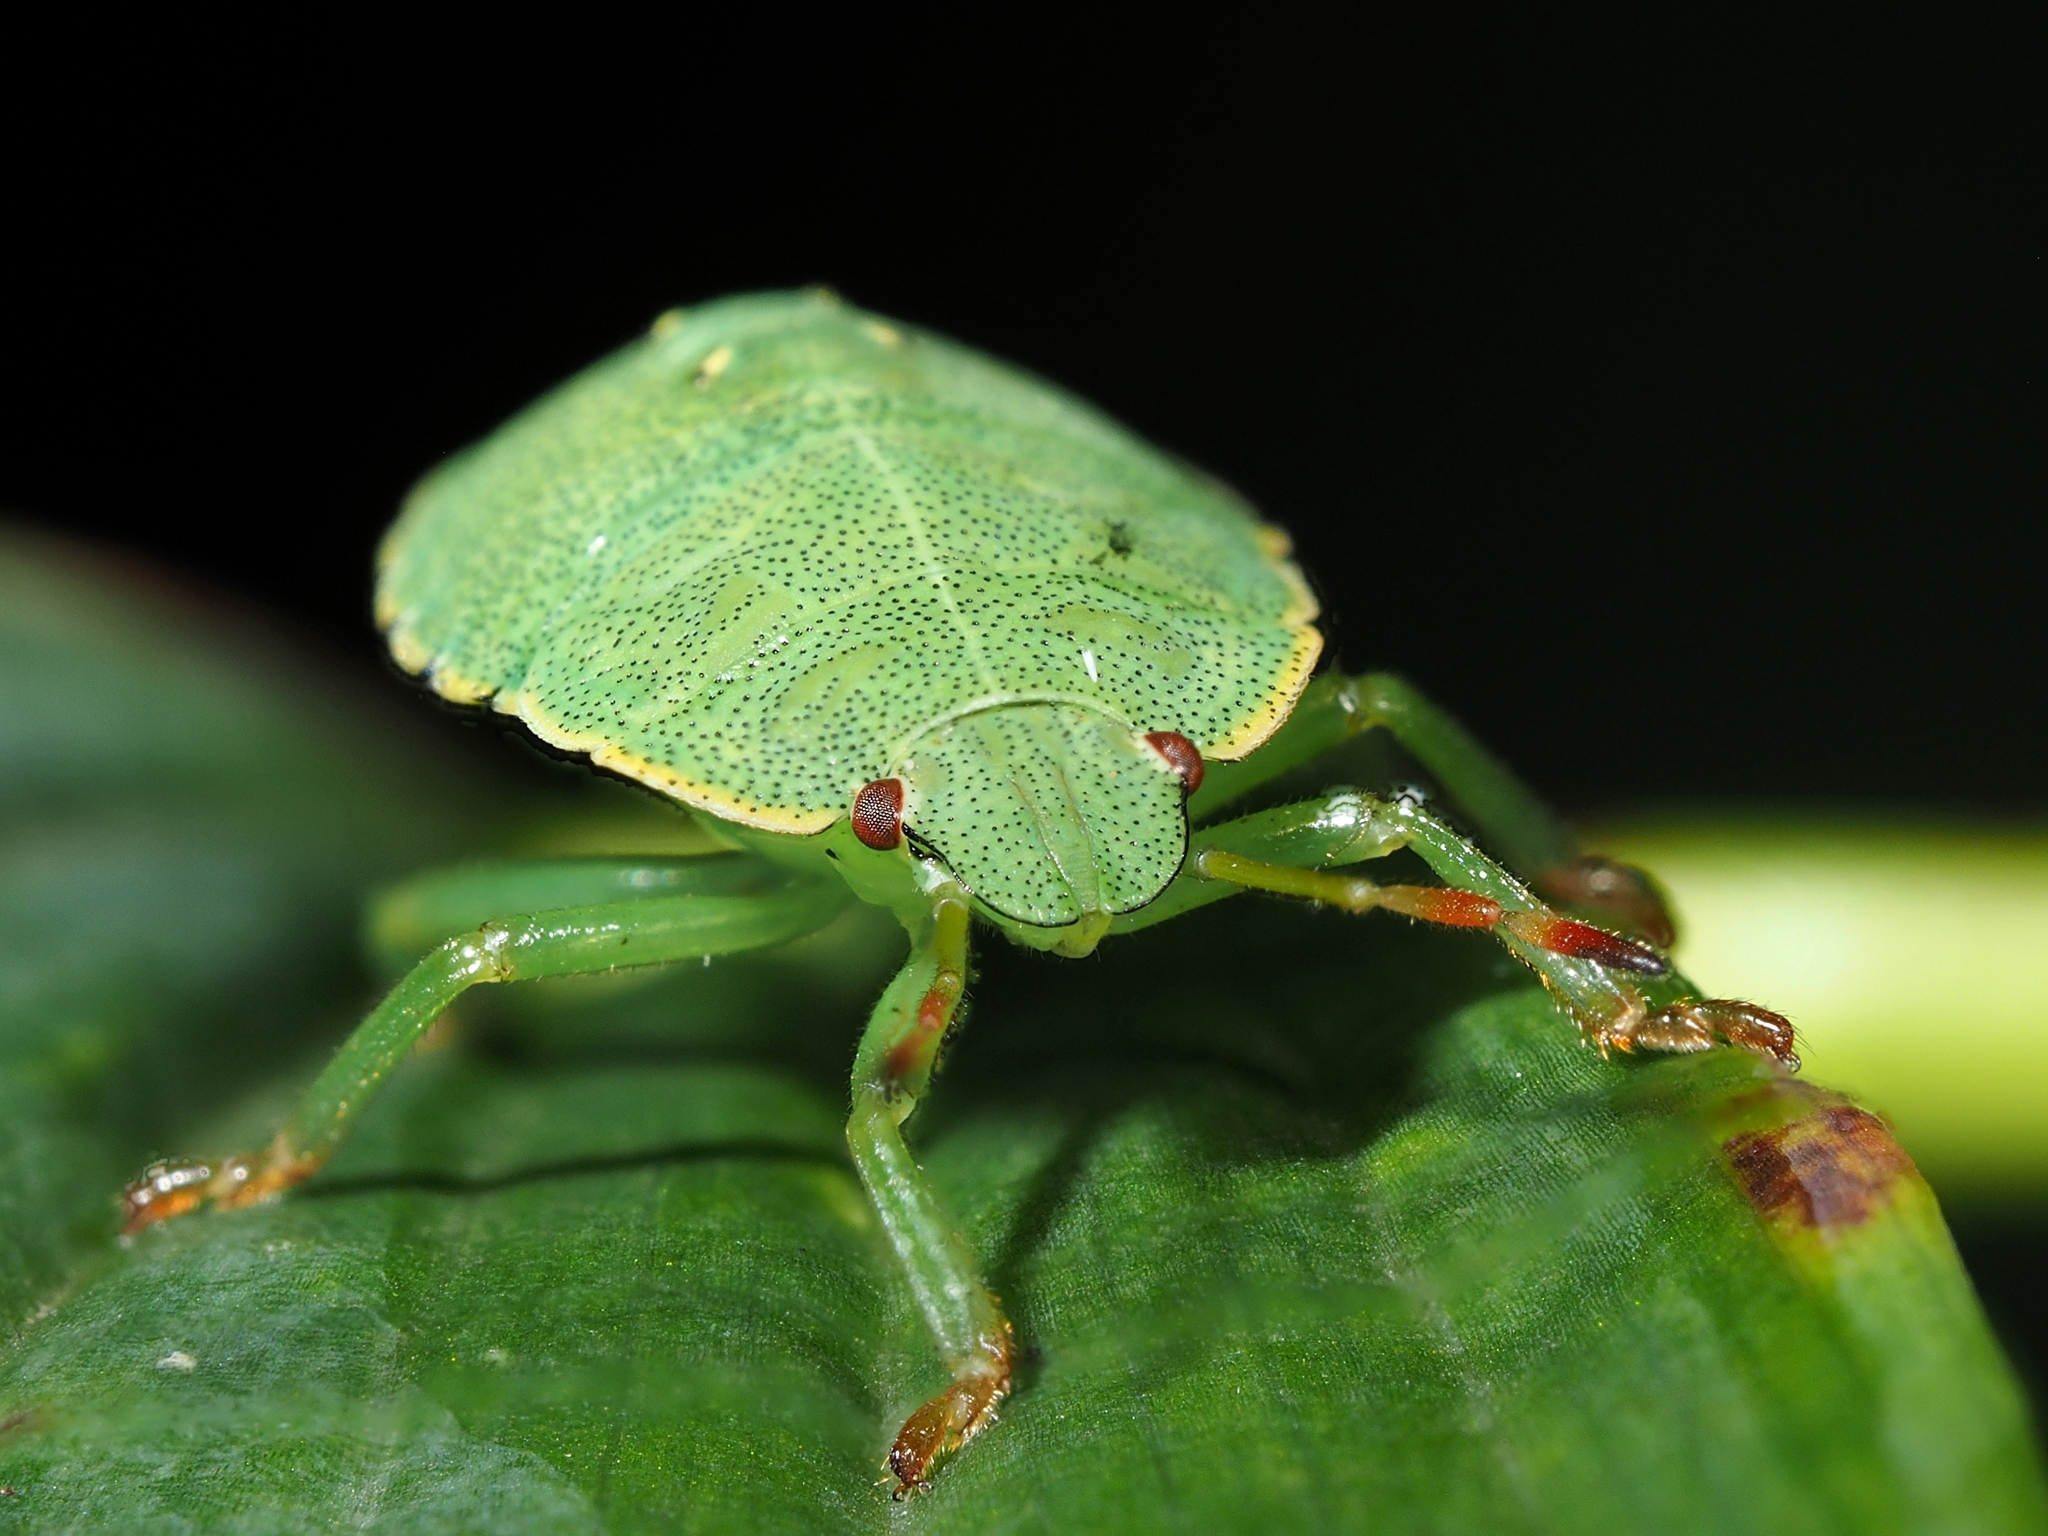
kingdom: Animalia
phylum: Arthropoda
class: Insecta
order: Hemiptera
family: Pentatomidae
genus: Palomena
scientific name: Palomena prasina
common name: Green shieldbug
